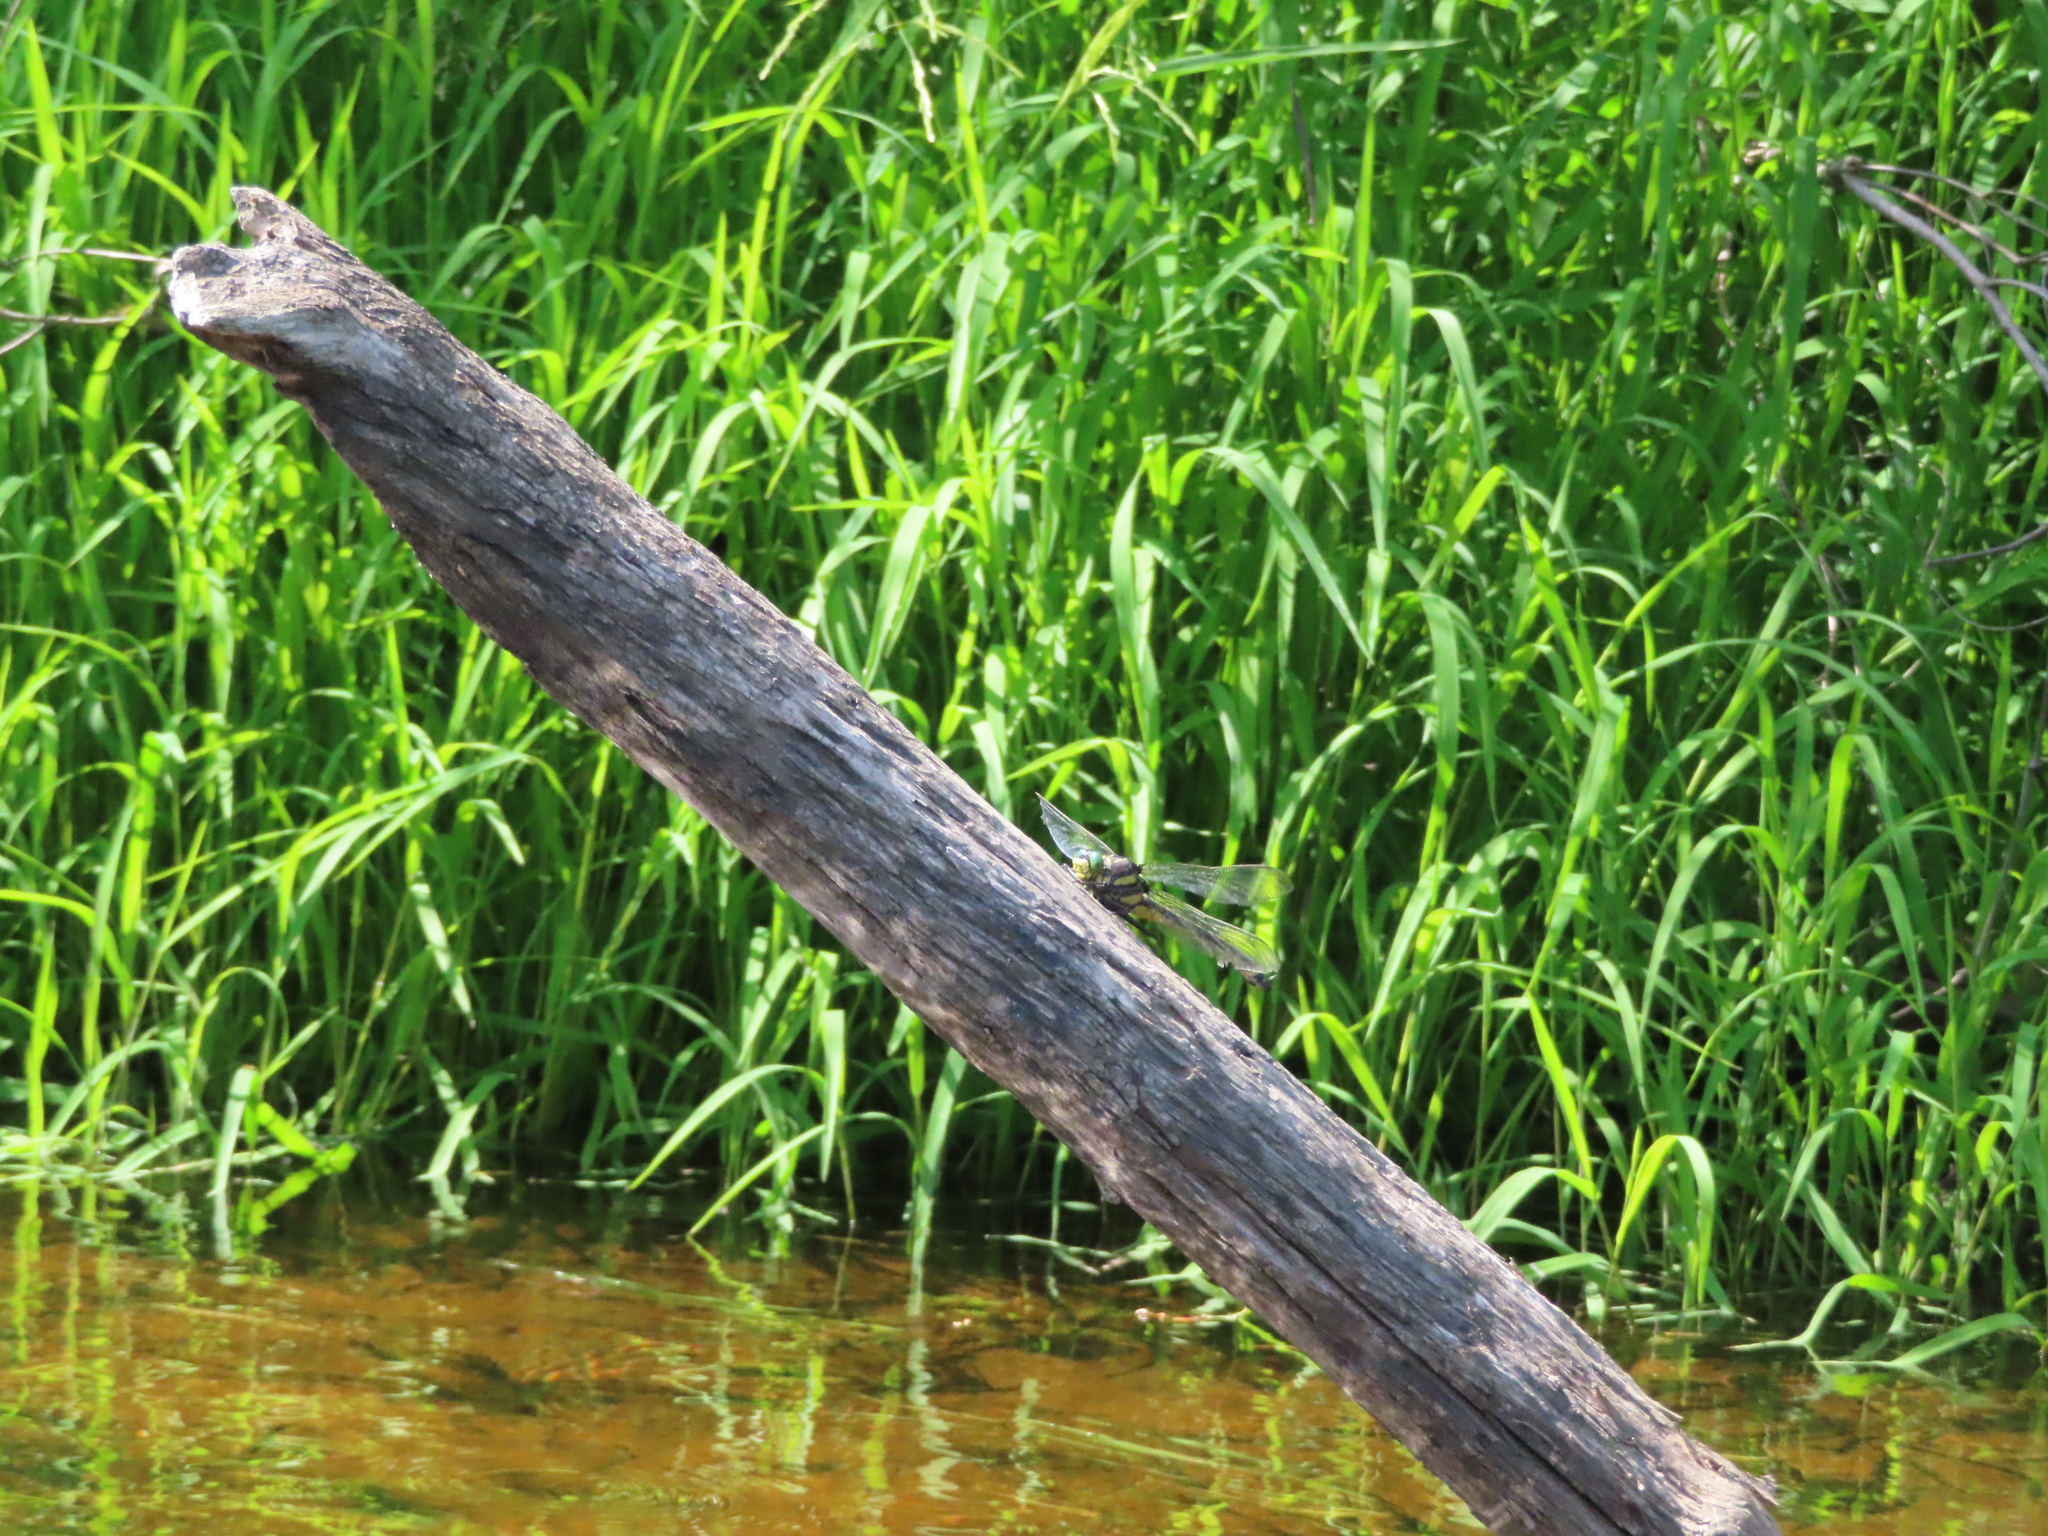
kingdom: Animalia
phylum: Arthropoda
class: Insecta
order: Odonata
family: Gomphidae
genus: Hagenius
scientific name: Hagenius brevistylus
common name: Dragonhunter
